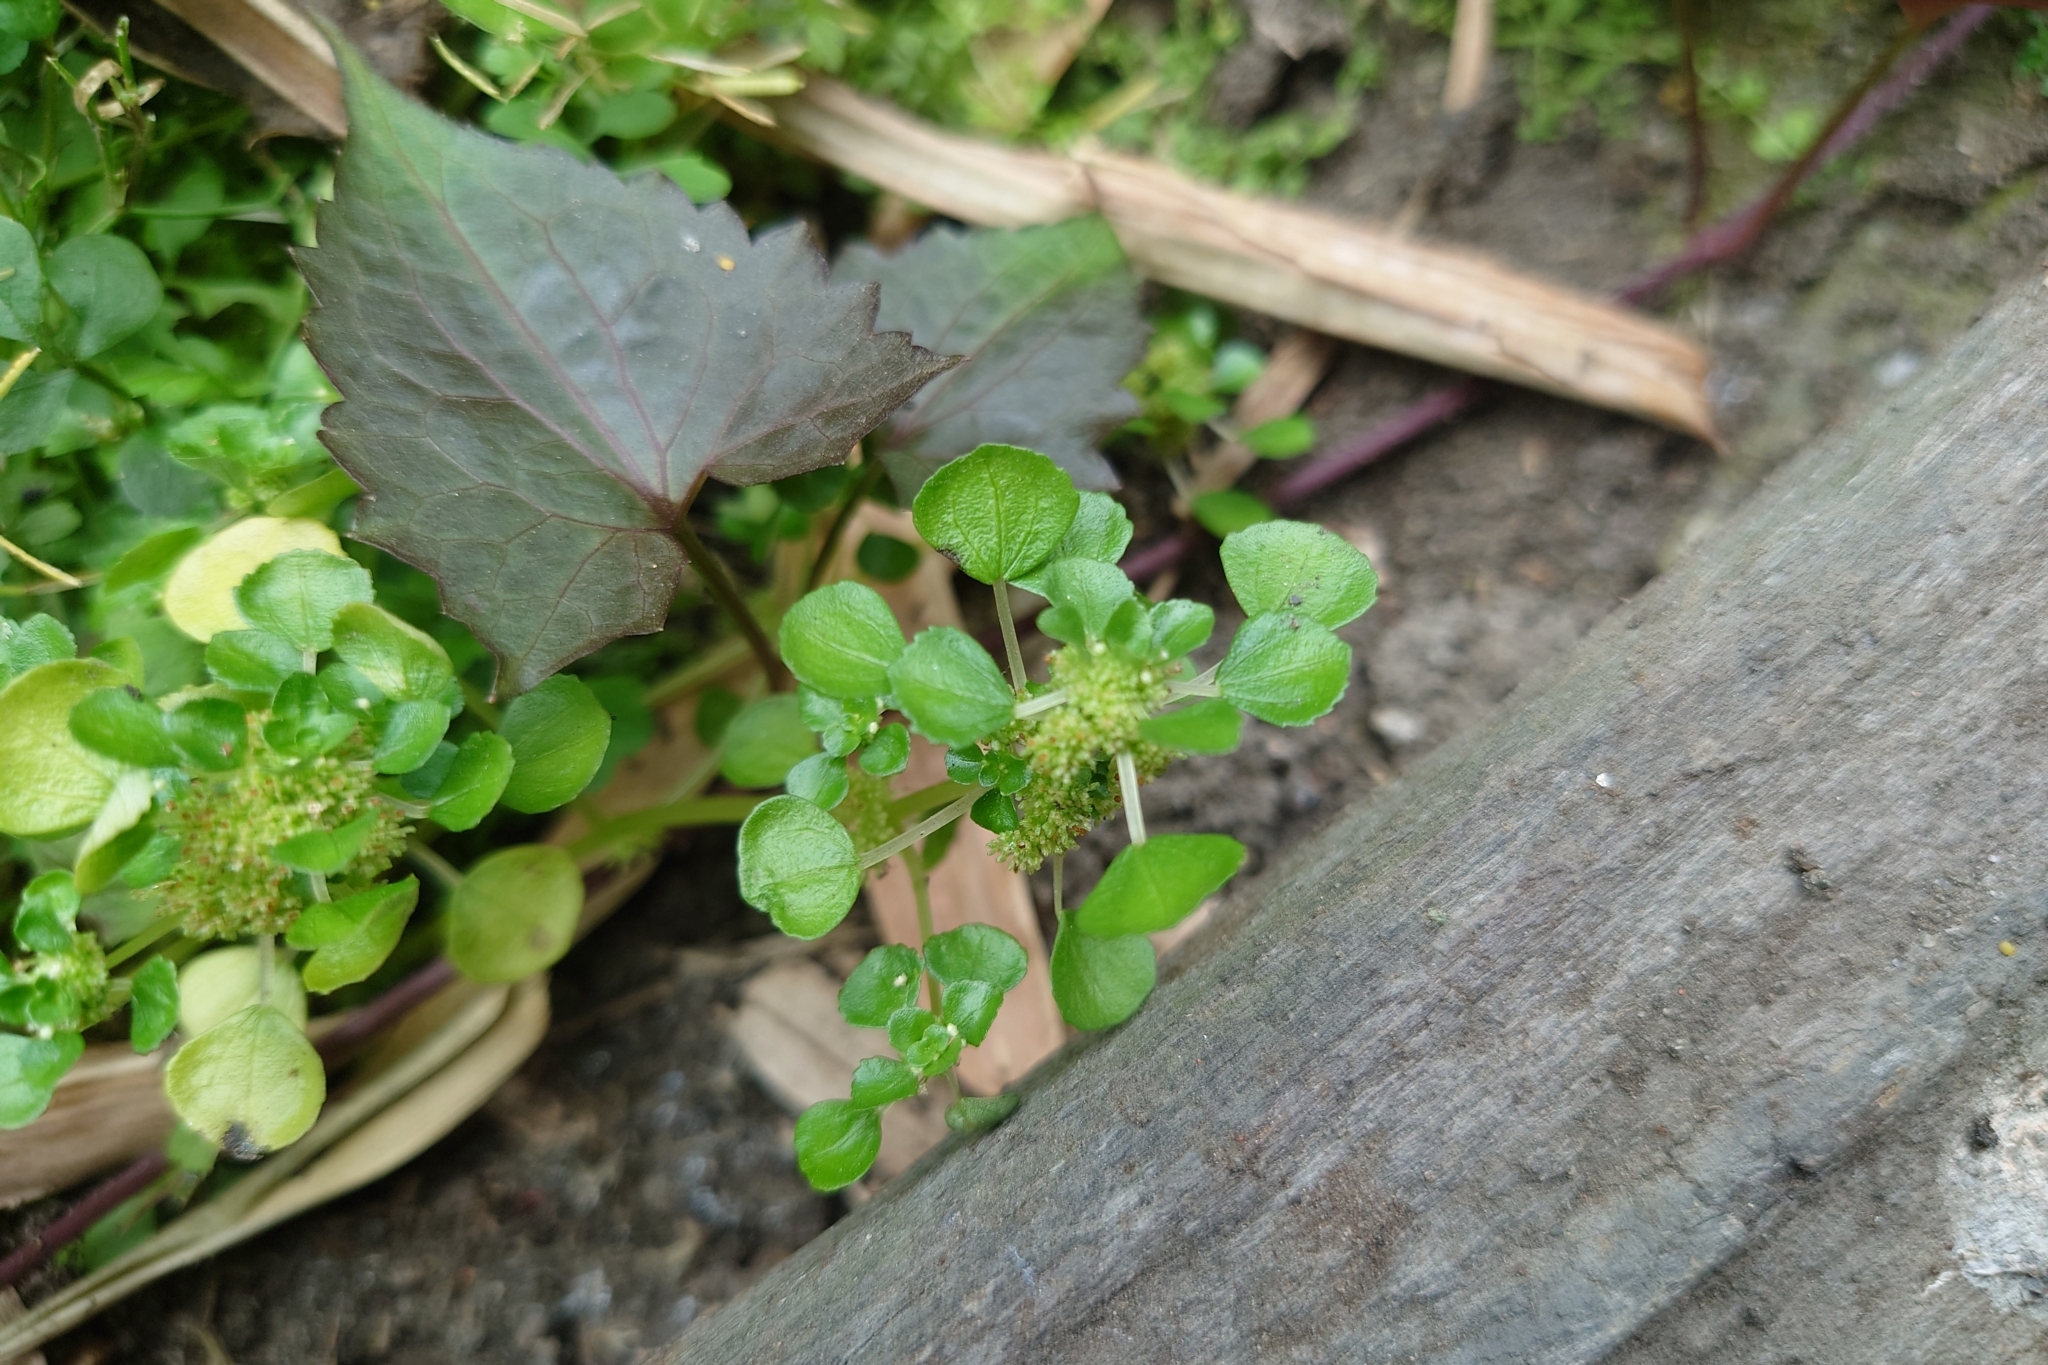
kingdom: Plantae
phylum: Tracheophyta
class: Magnoliopsida
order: Rosales
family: Urticaceae
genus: Pilea
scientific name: Pilea peploides
